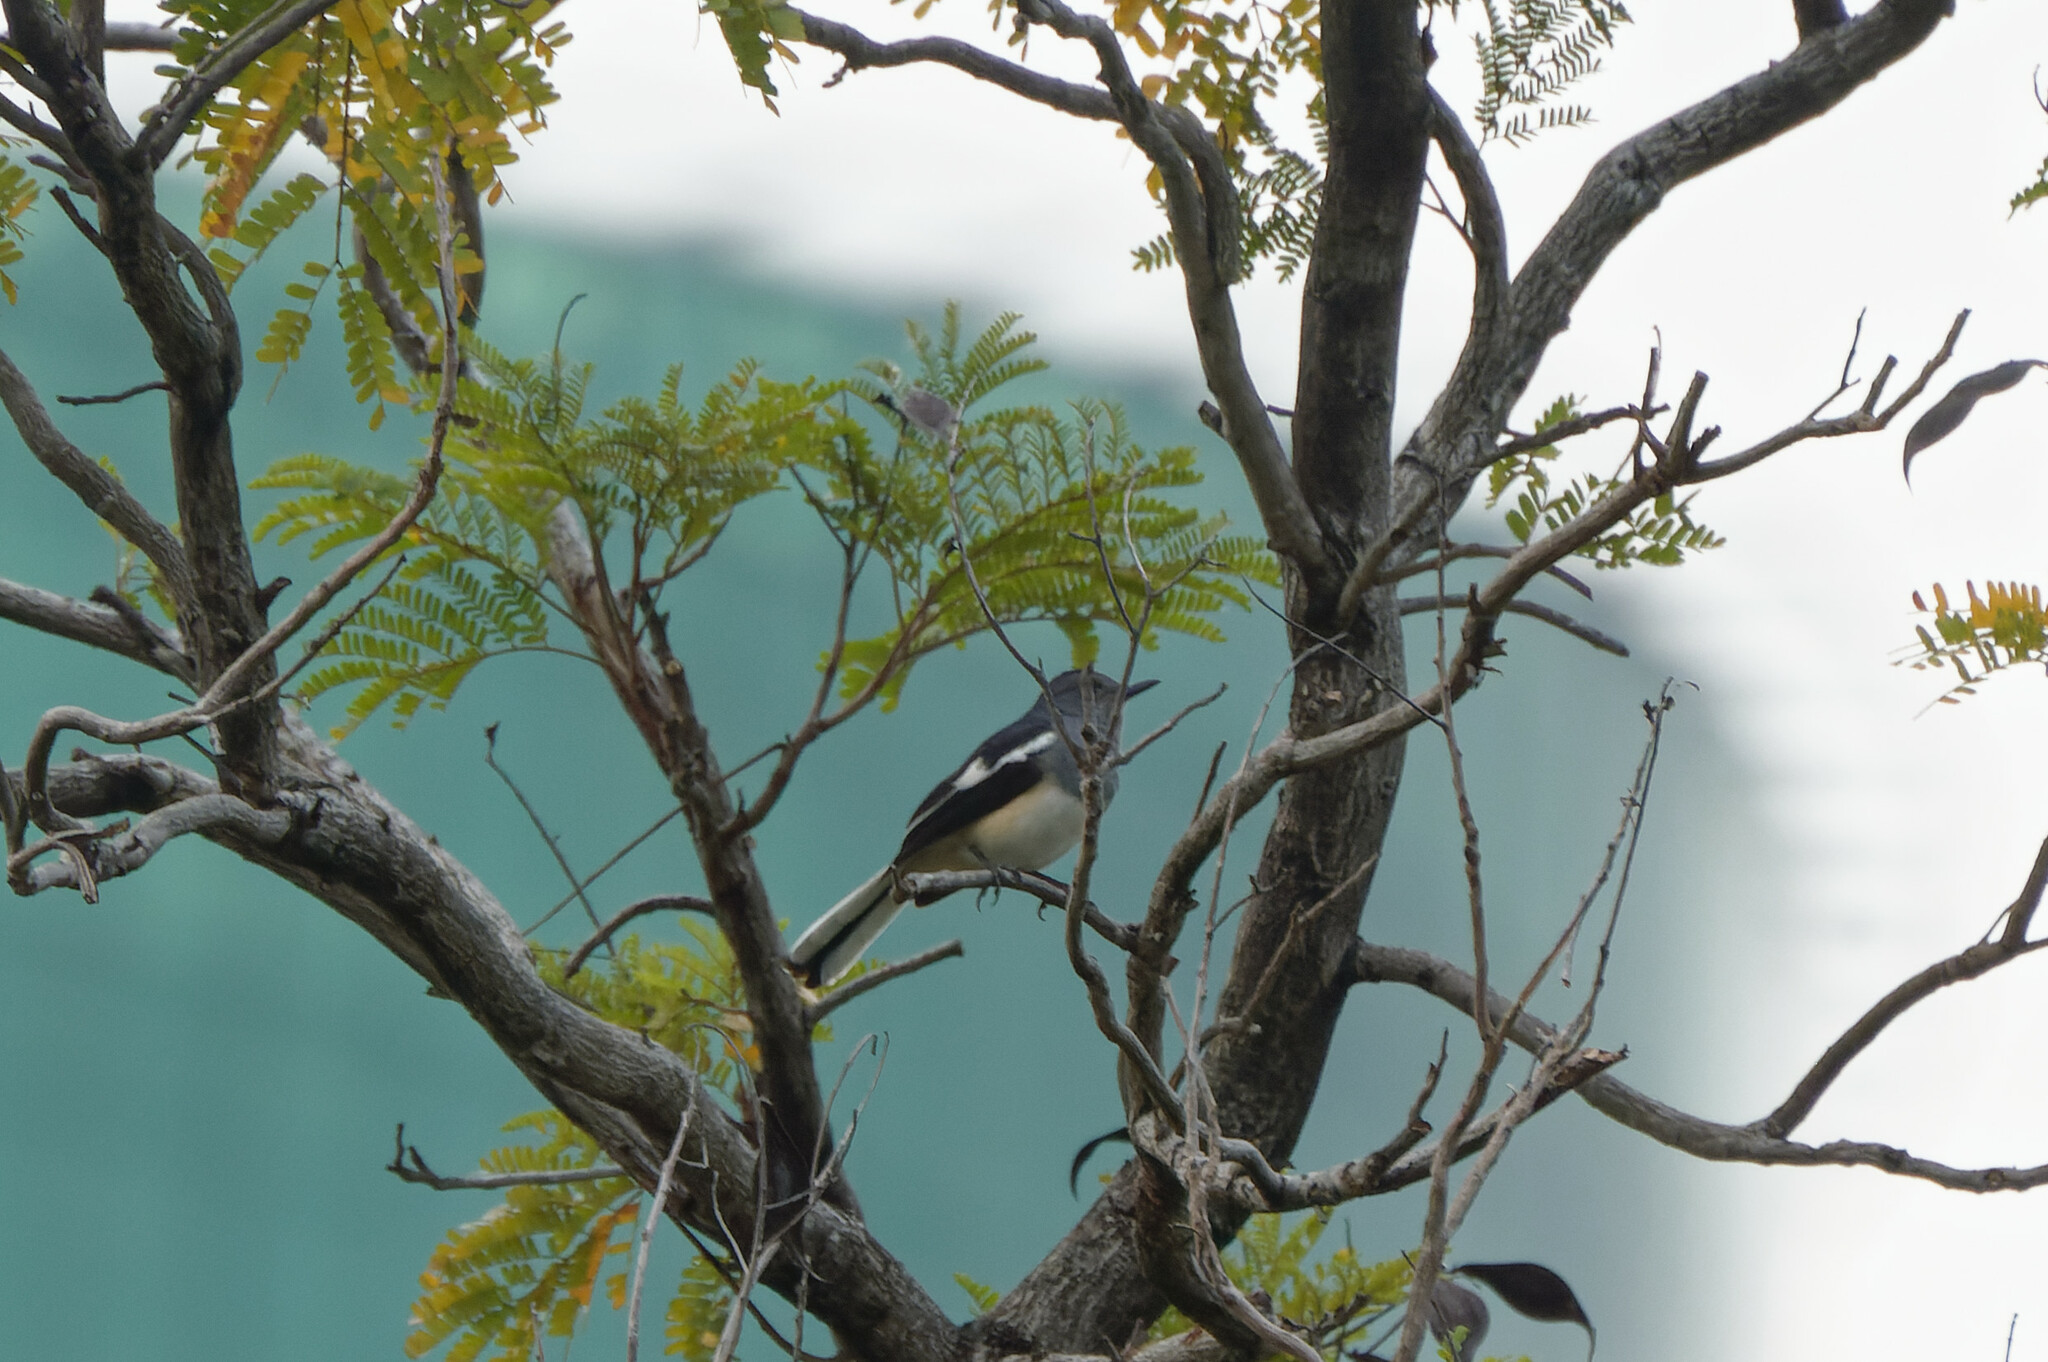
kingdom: Animalia
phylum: Chordata
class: Aves
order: Passeriformes
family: Muscicapidae
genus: Copsychus
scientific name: Copsychus saularis
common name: Oriental magpie-robin
